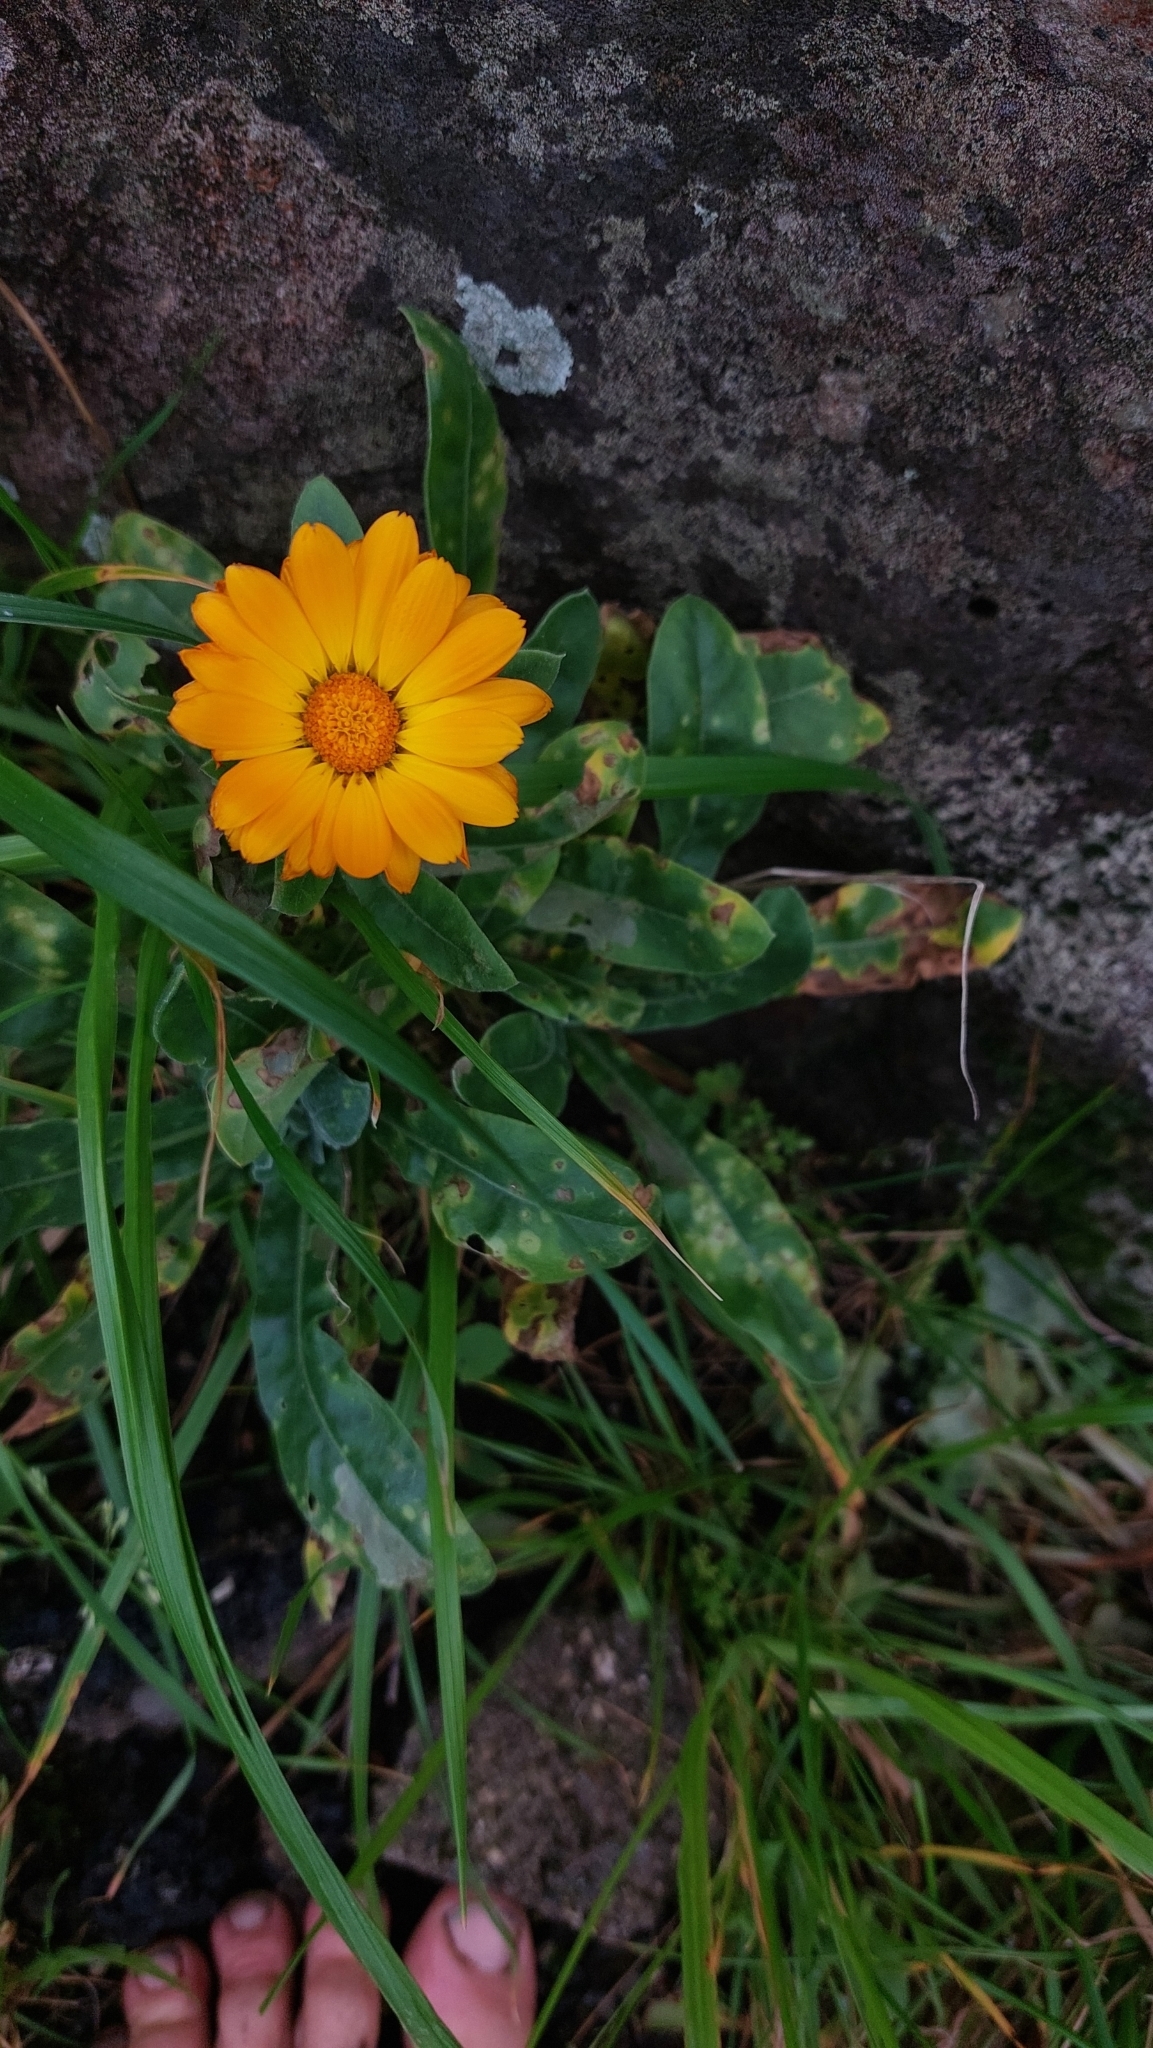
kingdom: Plantae
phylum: Tracheophyta
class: Magnoliopsida
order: Asterales
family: Asteraceae
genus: Calendula
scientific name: Calendula officinalis
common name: Pot marigold
